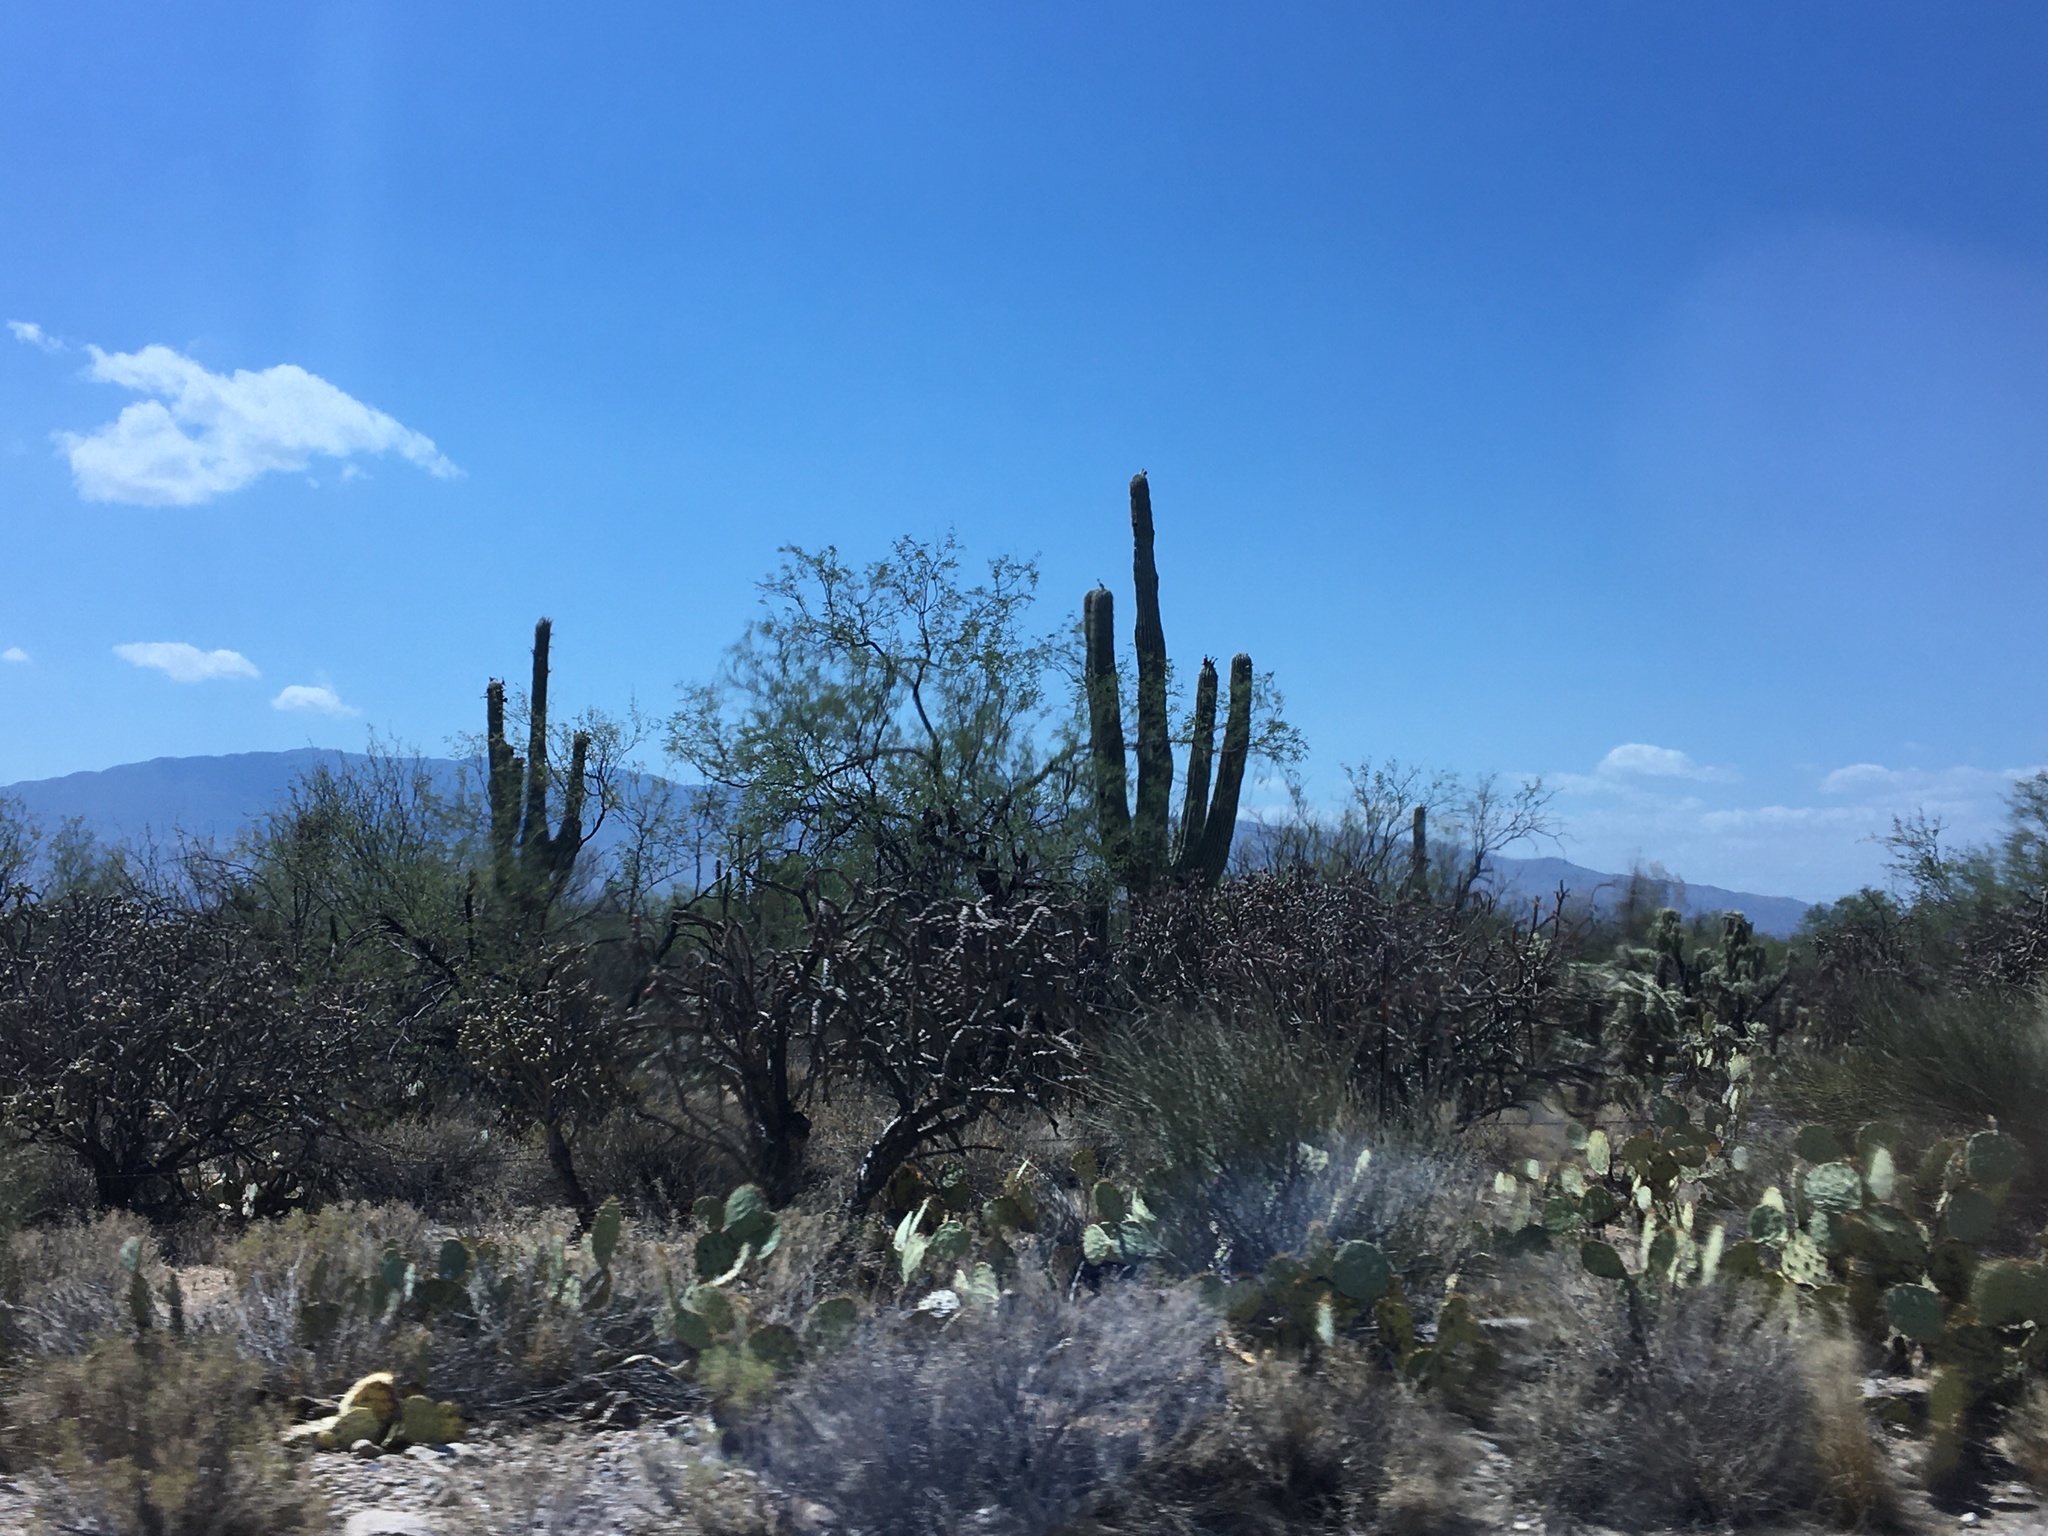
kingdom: Plantae
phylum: Tracheophyta
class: Magnoliopsida
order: Caryophyllales
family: Cactaceae
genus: Carnegiea
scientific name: Carnegiea gigantea
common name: Saguaro
